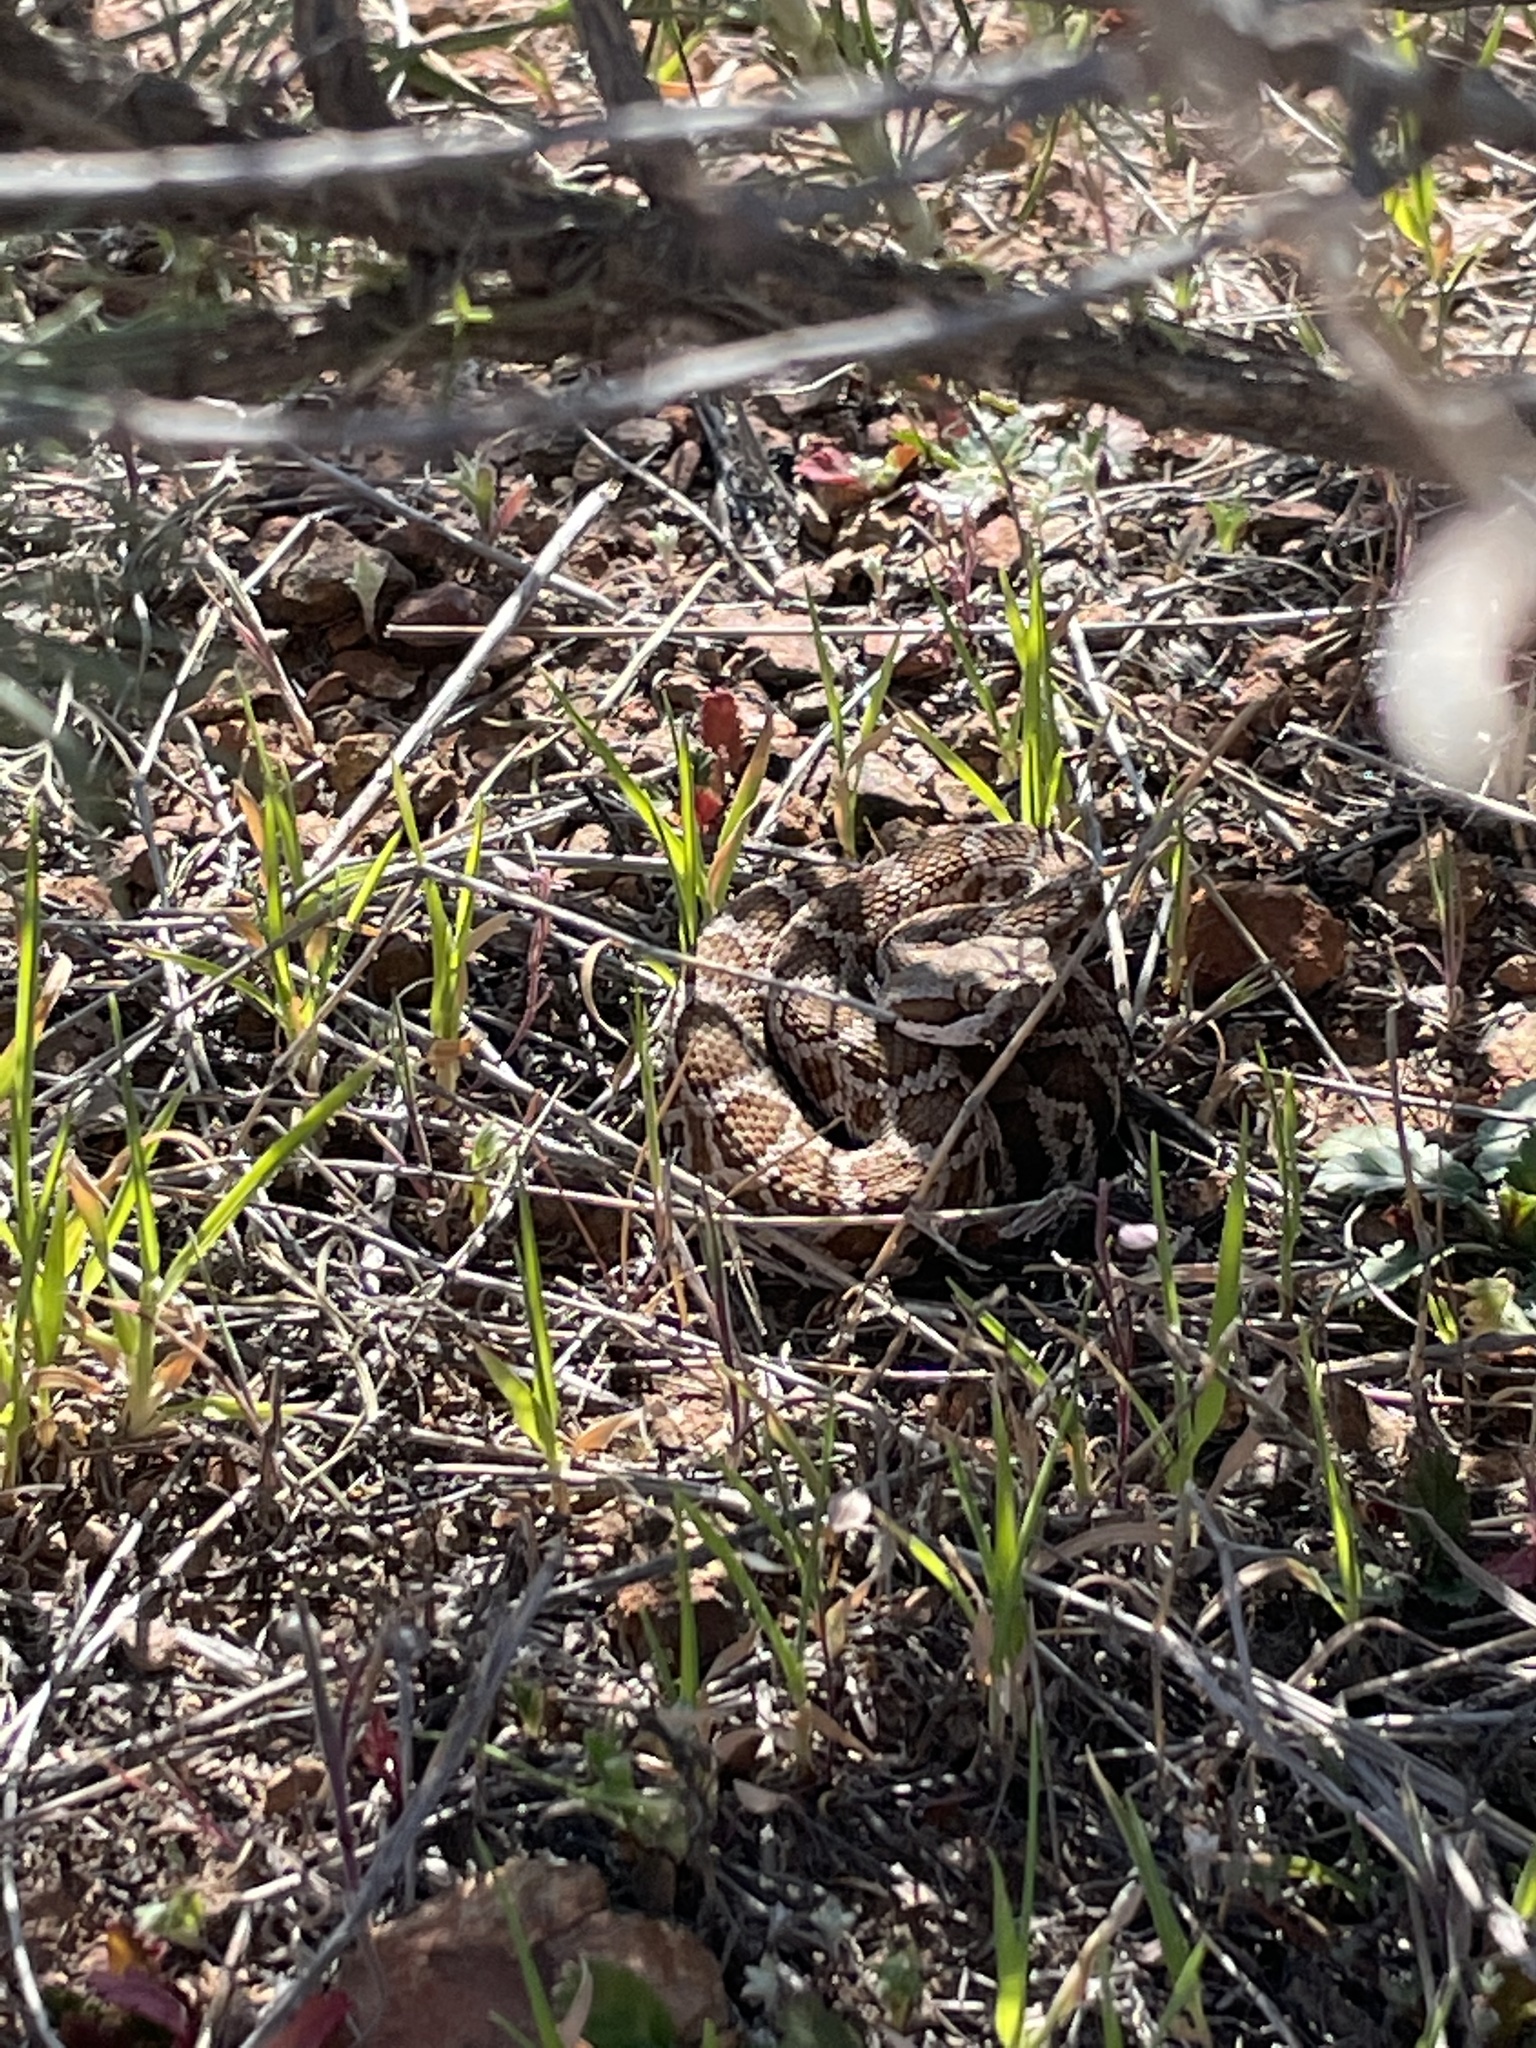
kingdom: Animalia
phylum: Chordata
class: Squamata
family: Viperidae
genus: Crotalus
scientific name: Crotalus oreganus
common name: Abyssus
